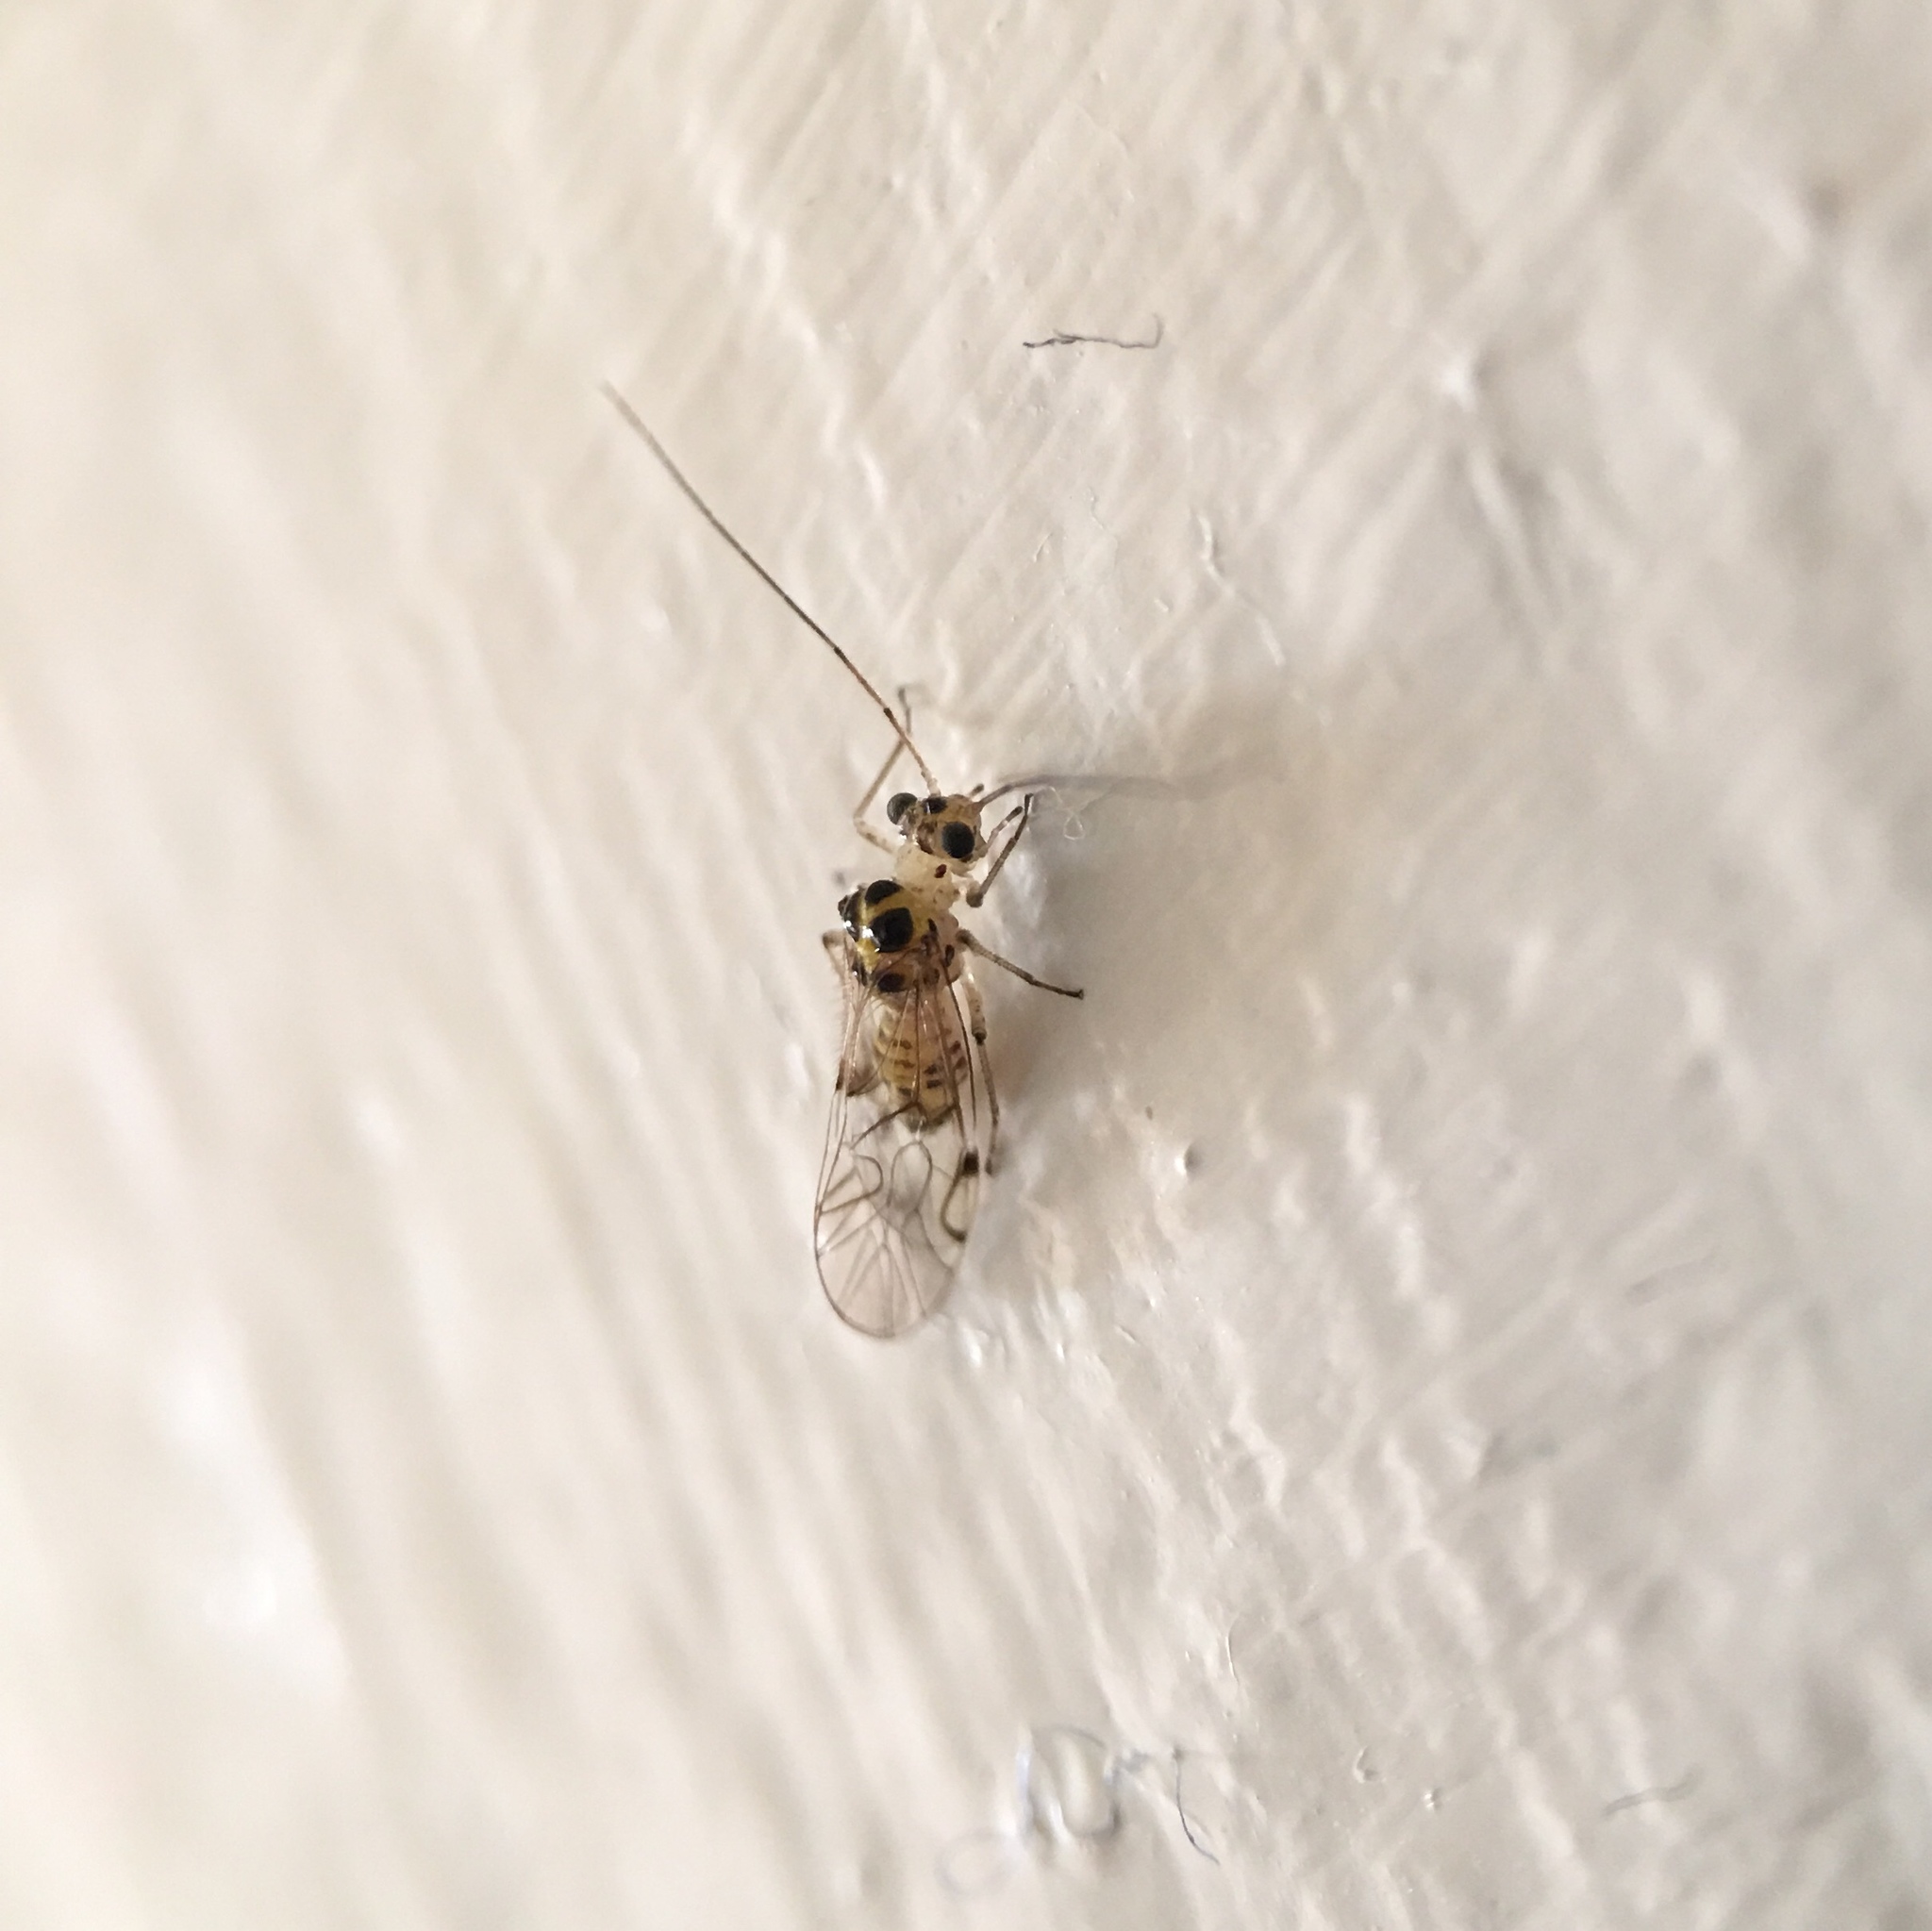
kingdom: Animalia
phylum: Arthropoda
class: Insecta
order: Psocodea
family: Dasydemellidae
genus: Teliapsocus
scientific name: Teliapsocus conterminus
